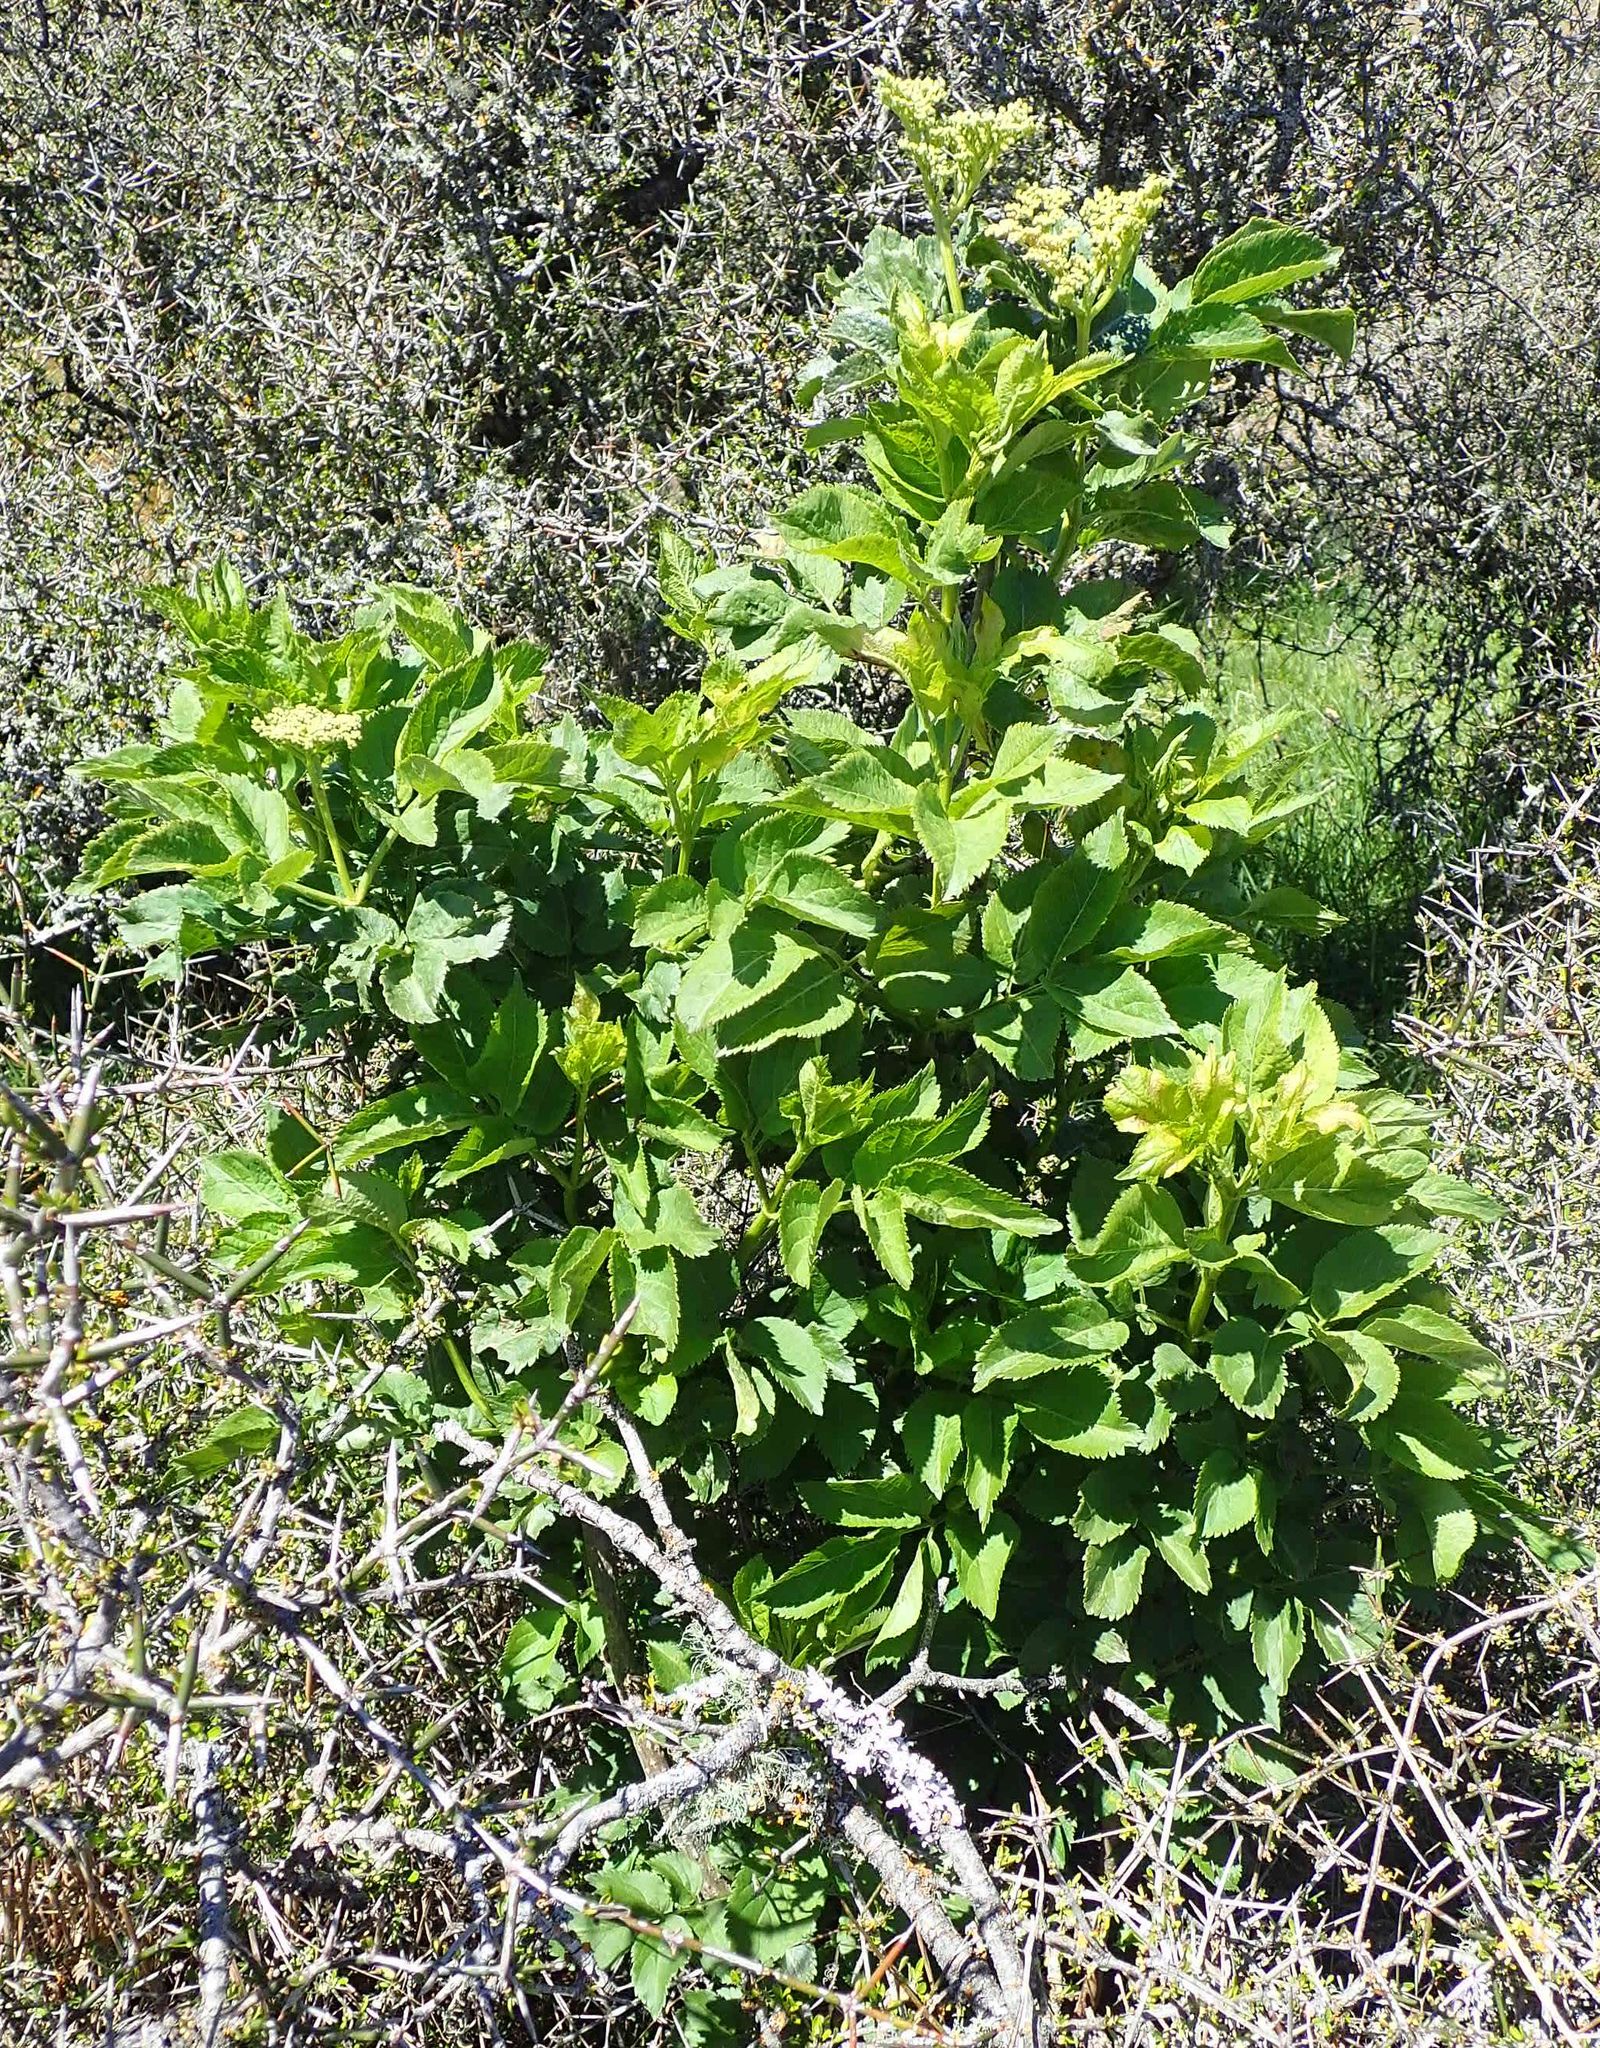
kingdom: Plantae
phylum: Tracheophyta
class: Magnoliopsida
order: Dipsacales
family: Viburnaceae
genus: Sambucus
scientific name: Sambucus nigra
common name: Elder
